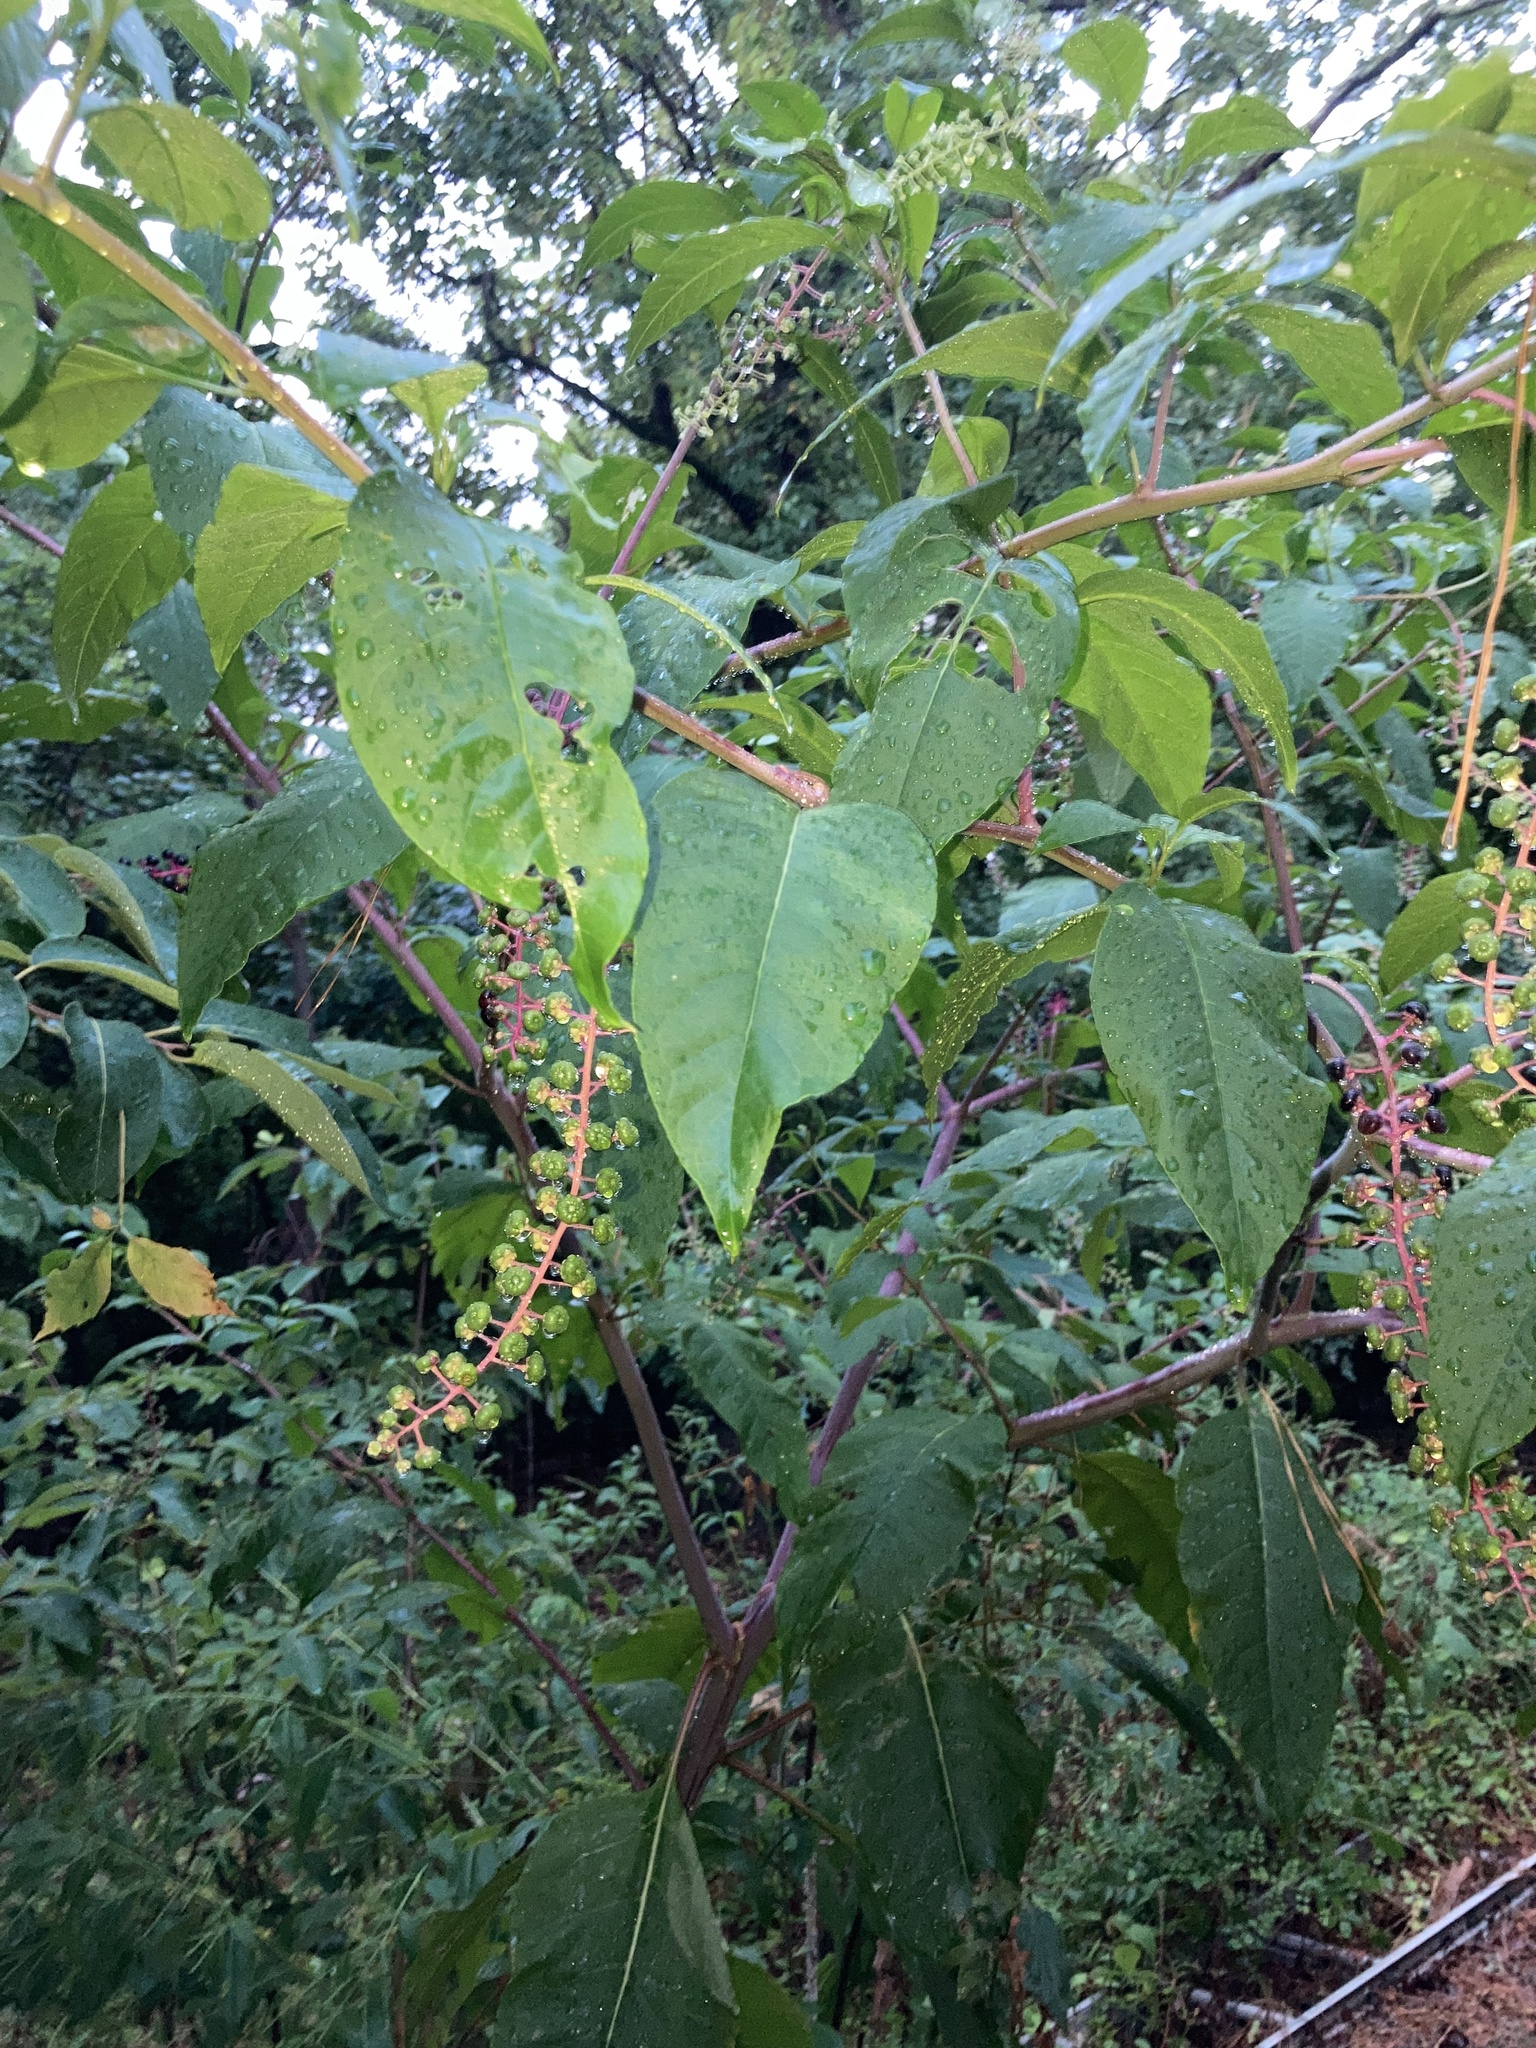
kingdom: Plantae
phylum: Tracheophyta
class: Magnoliopsida
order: Caryophyllales
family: Phytolaccaceae
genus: Phytolacca
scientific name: Phytolacca americana
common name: American pokeweed
